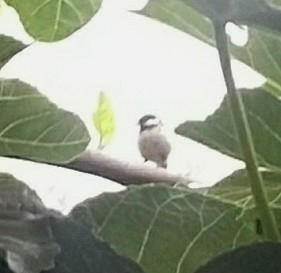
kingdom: Animalia
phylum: Chordata
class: Aves
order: Passeriformes
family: Paridae
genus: Periparus
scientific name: Periparus ater
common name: Coal tit
